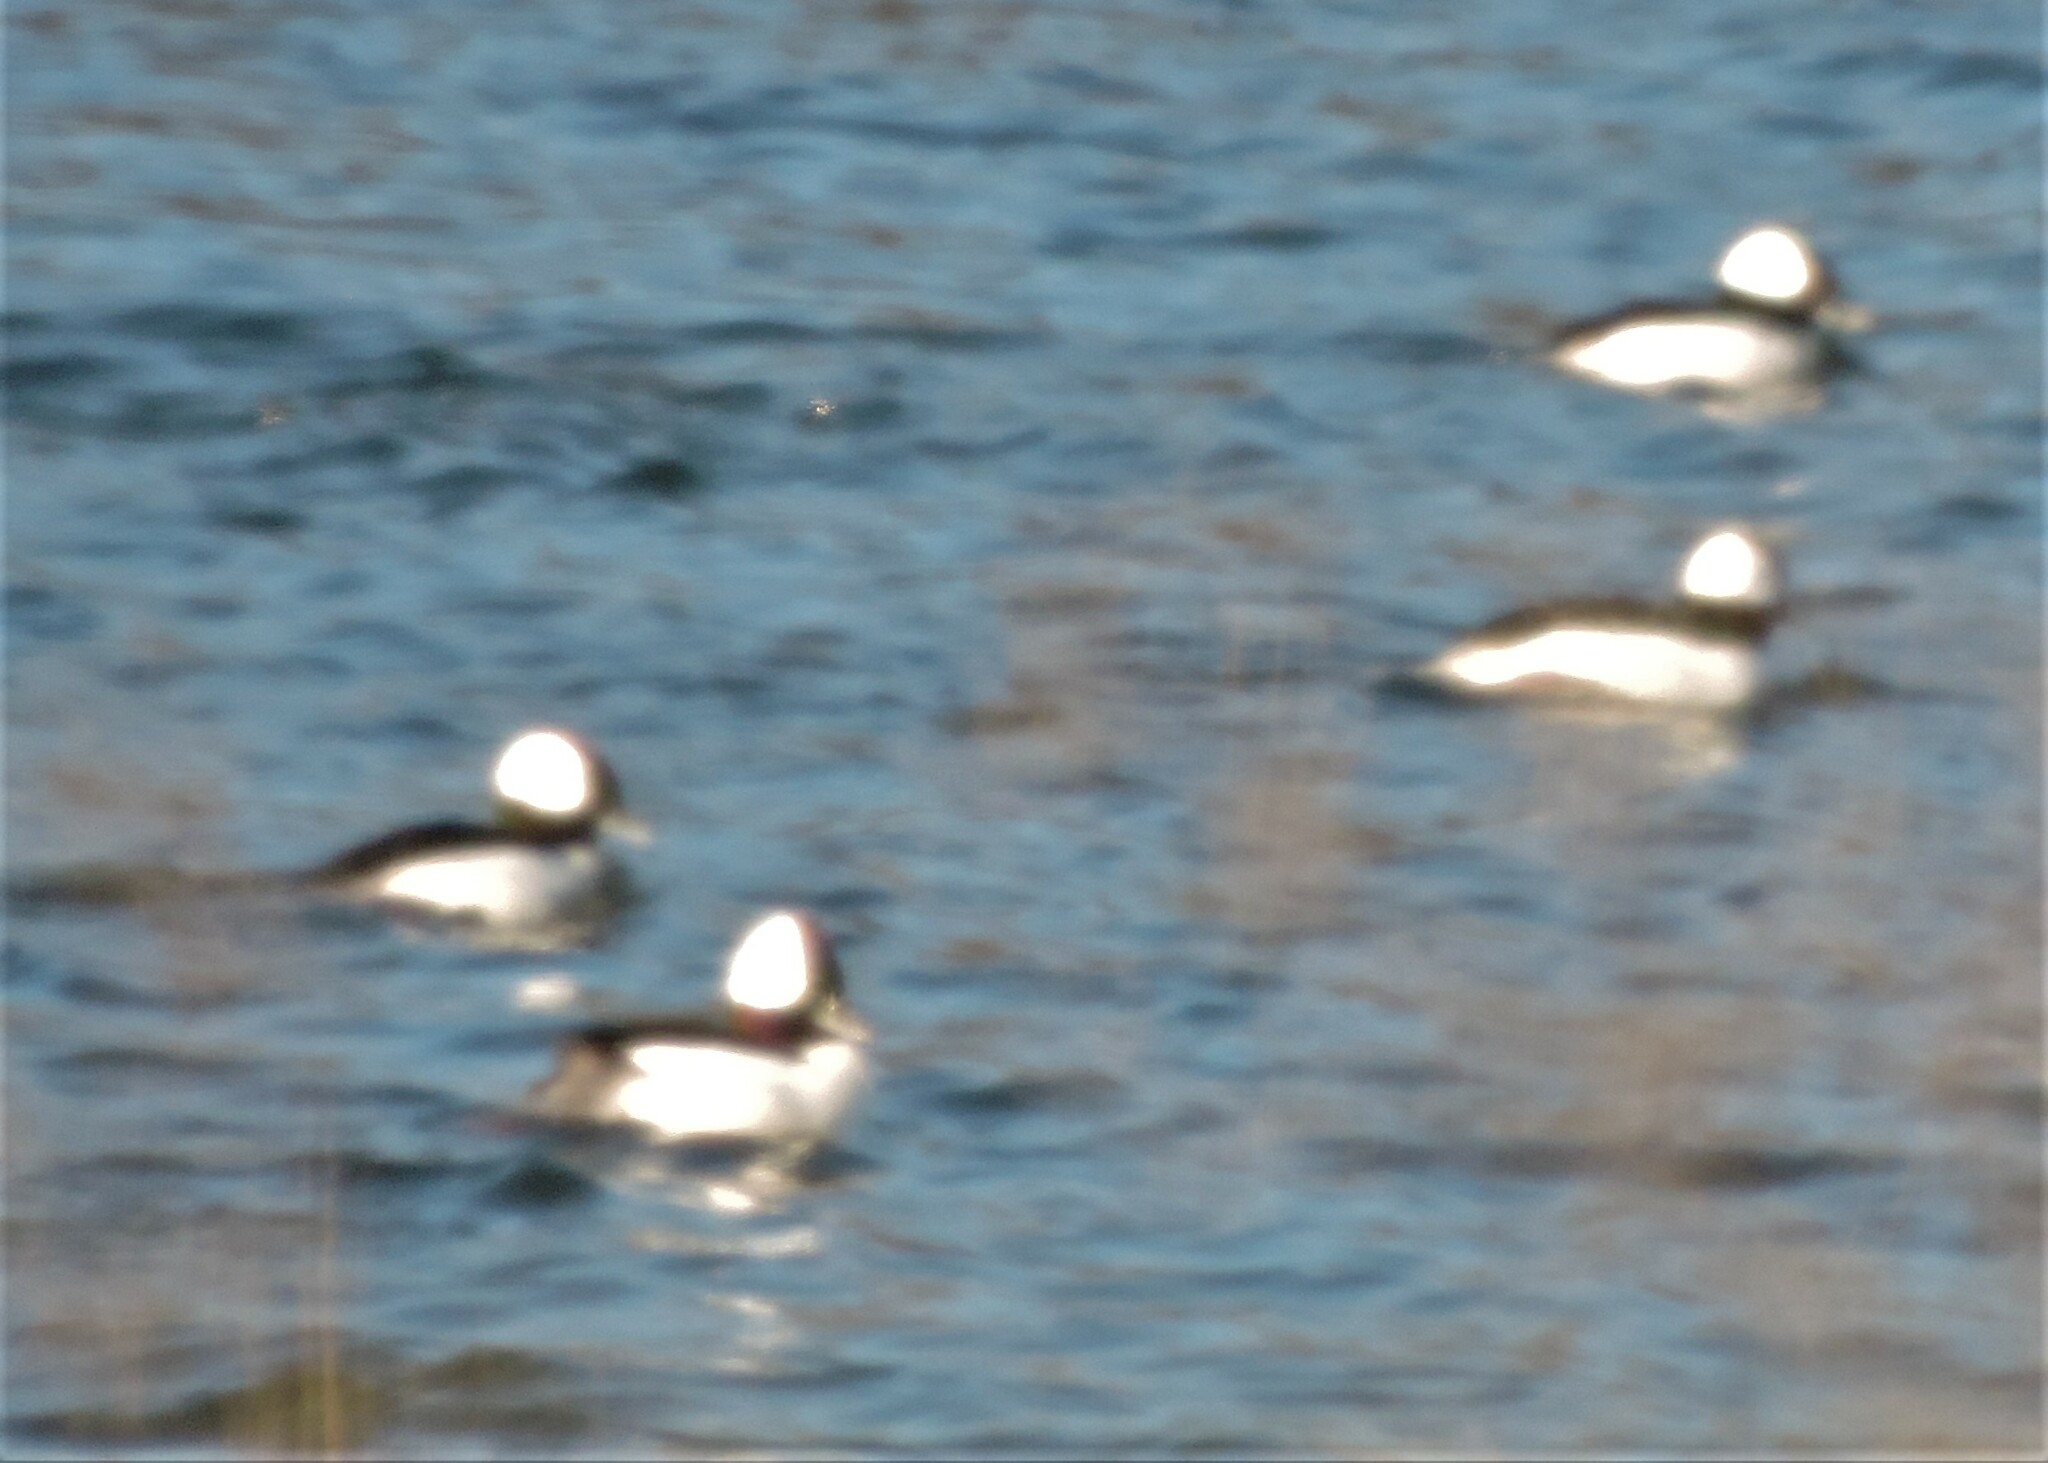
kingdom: Animalia
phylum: Chordata
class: Aves
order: Anseriformes
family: Anatidae
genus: Bucephala
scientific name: Bucephala albeola
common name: Bufflehead
